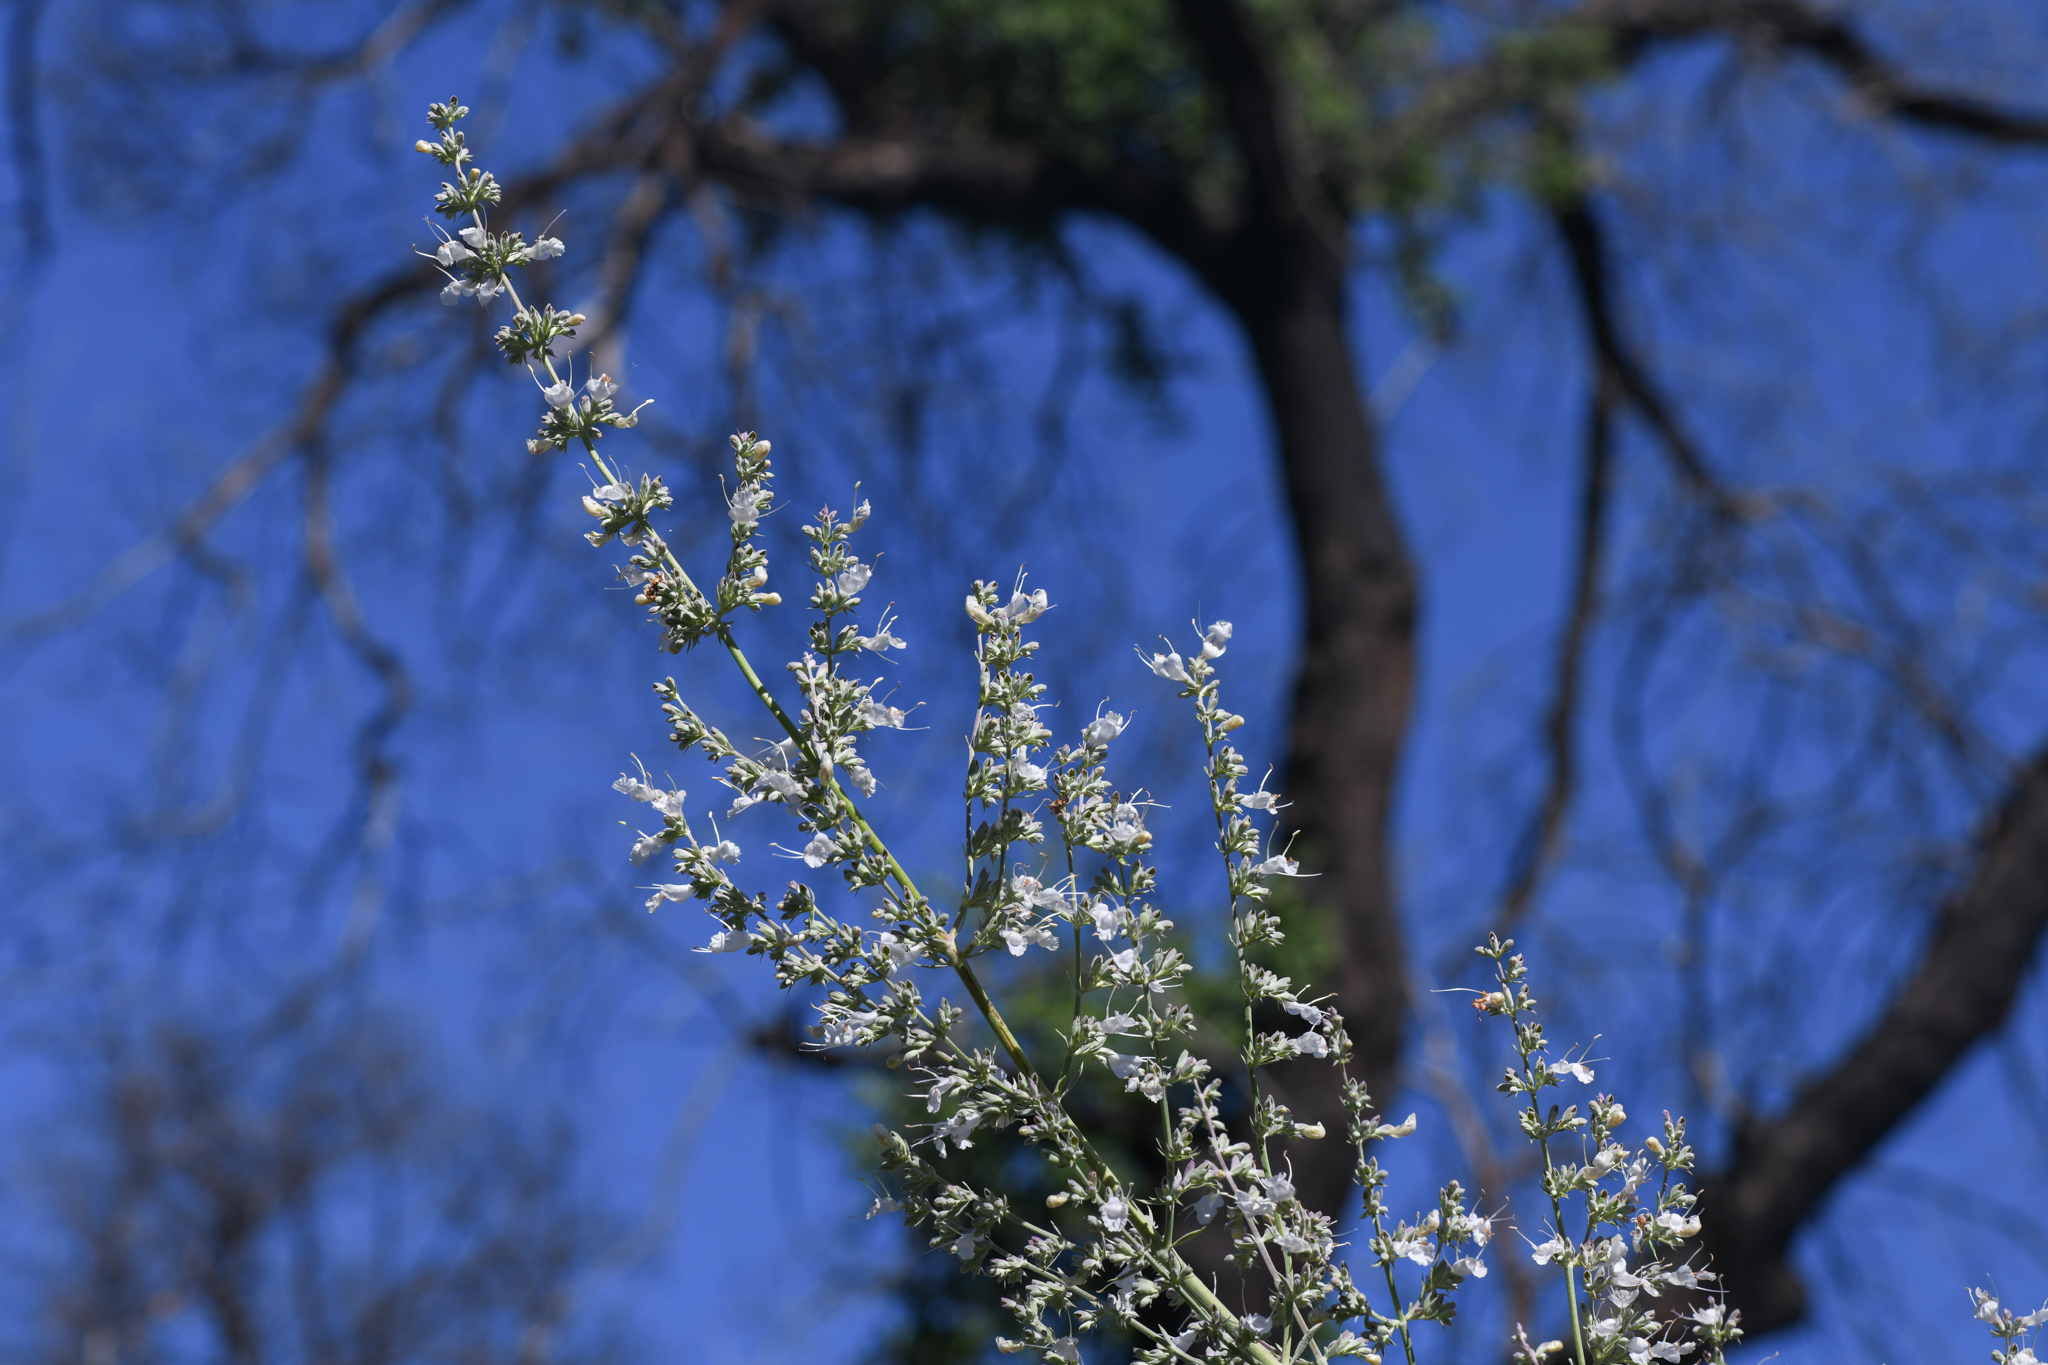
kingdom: Plantae
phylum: Tracheophyta
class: Magnoliopsida
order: Lamiales
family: Lamiaceae
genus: Salvia
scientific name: Salvia apiana
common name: White sage
